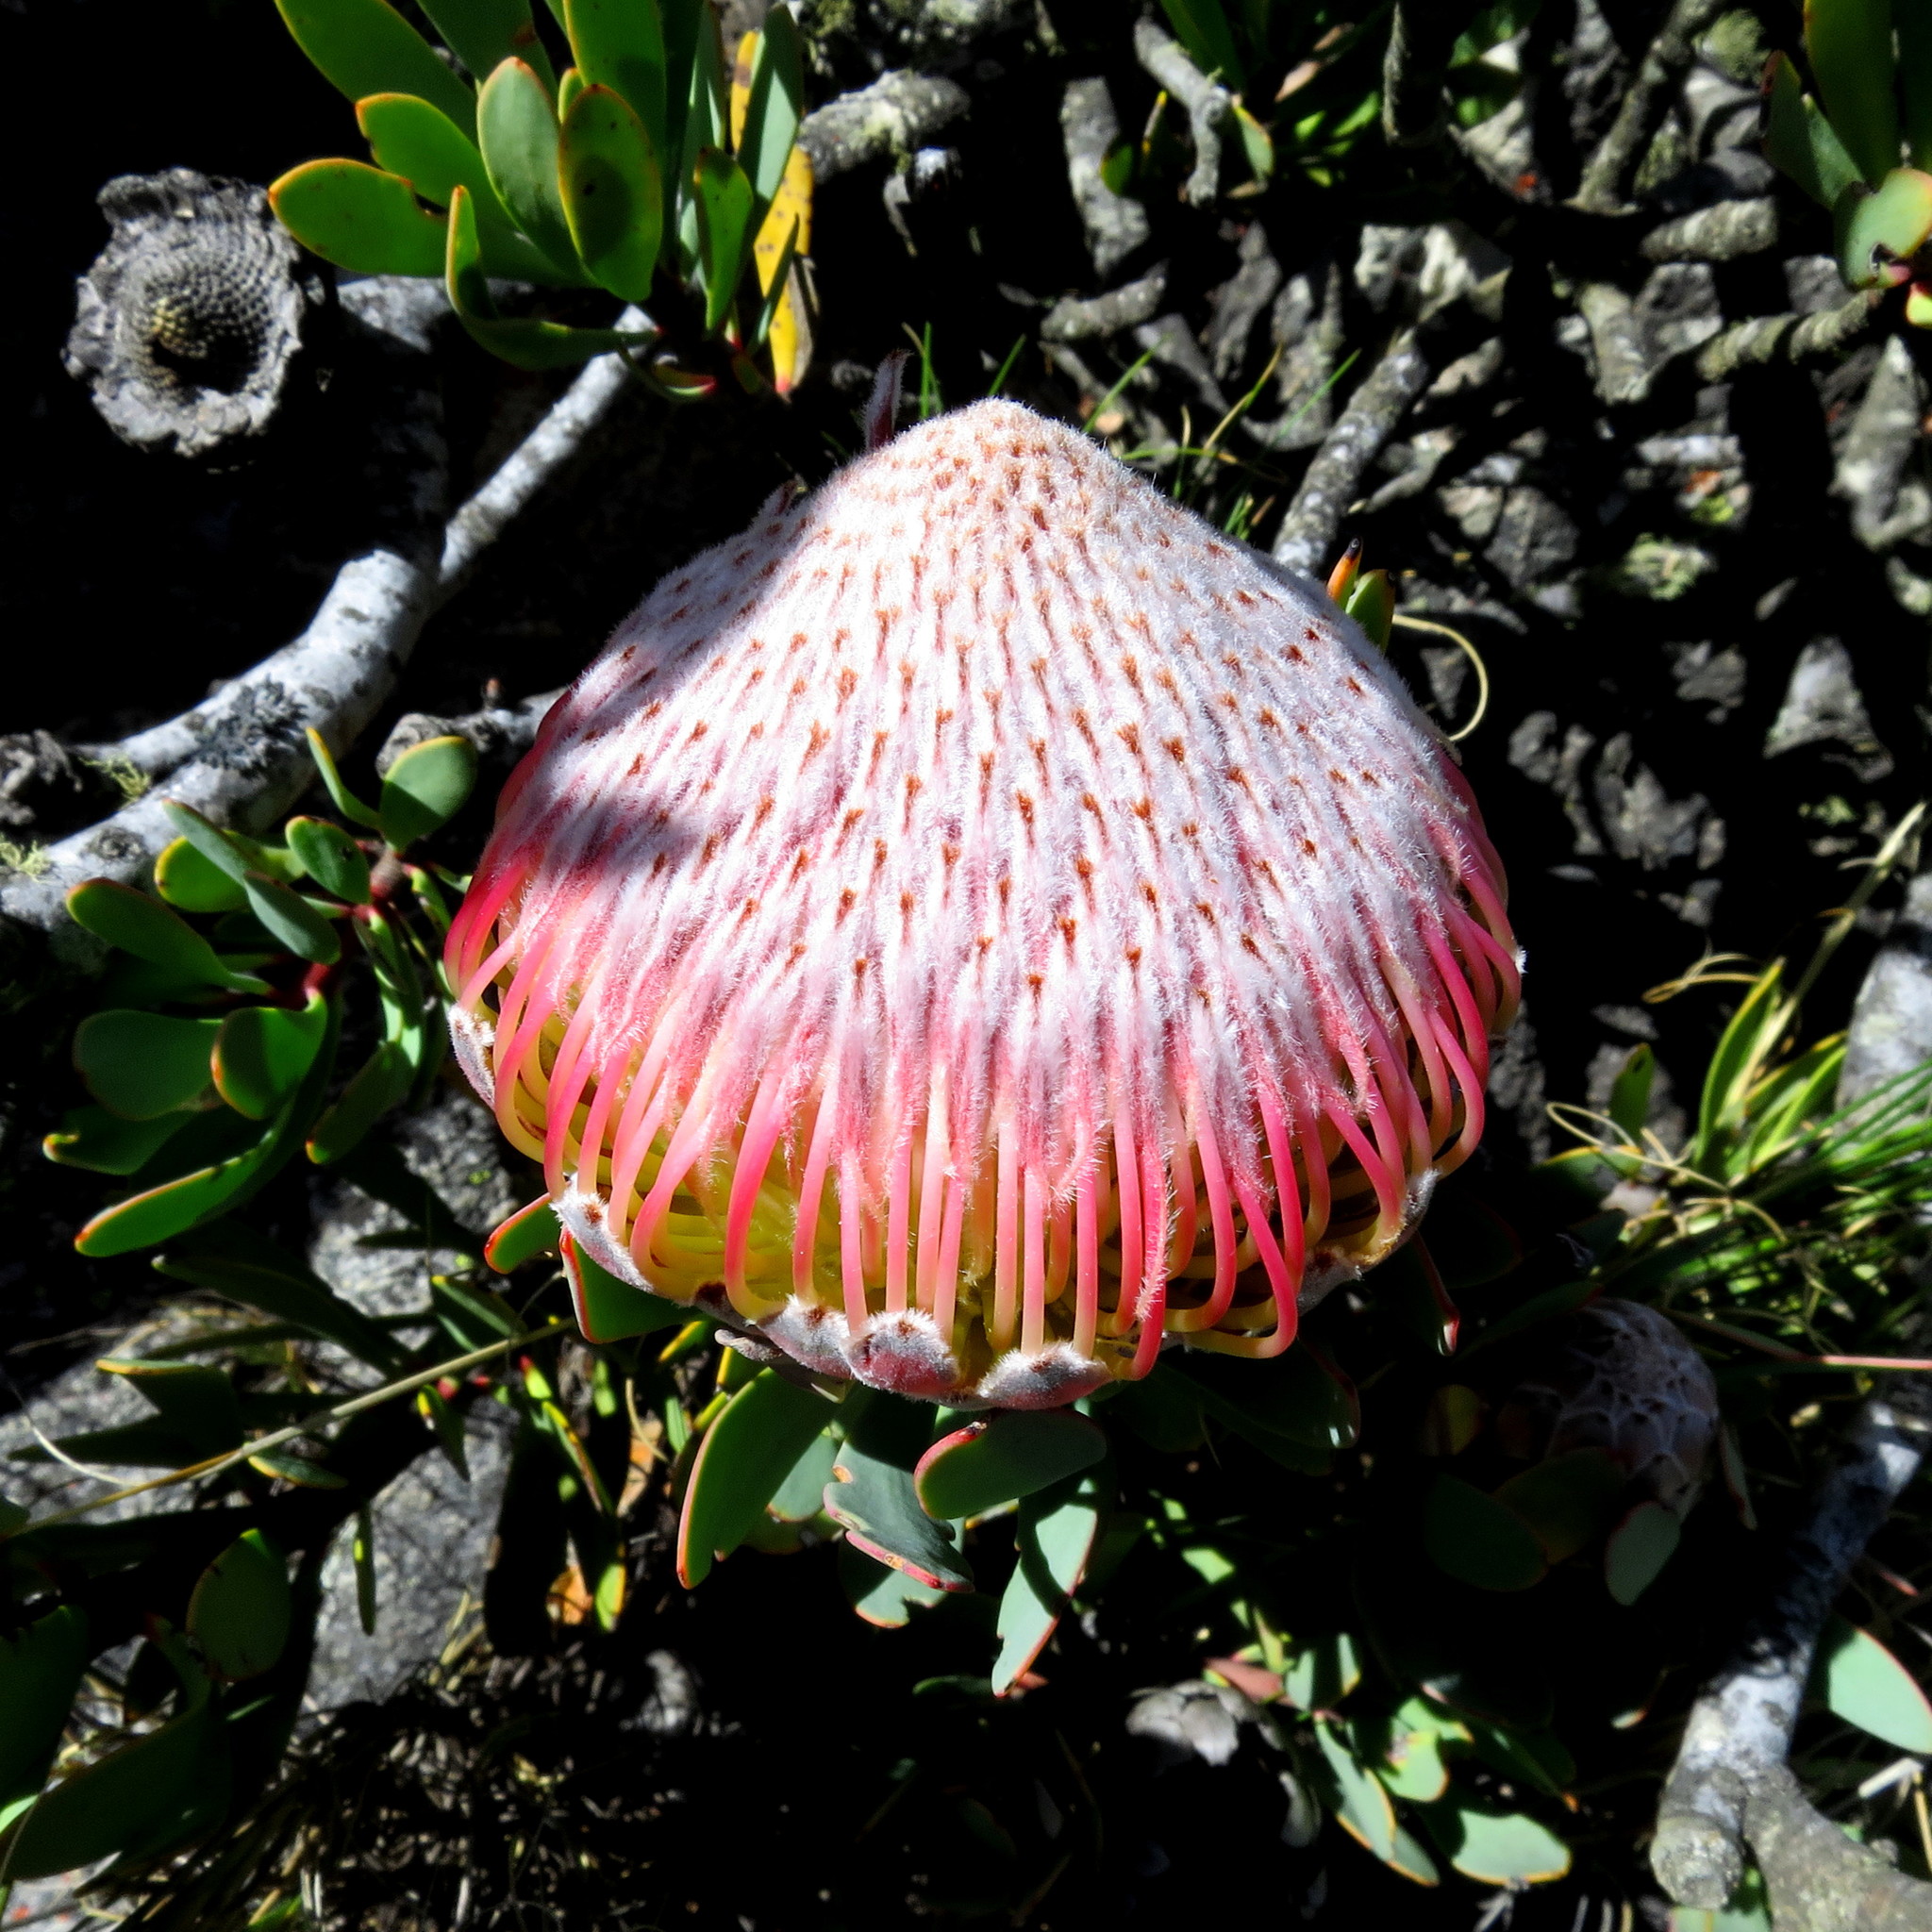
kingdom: Plantae
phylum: Tracheophyta
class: Magnoliopsida
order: Proteales
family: Proteaceae
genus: Protea
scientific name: Protea rupicola
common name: Krantz protea
